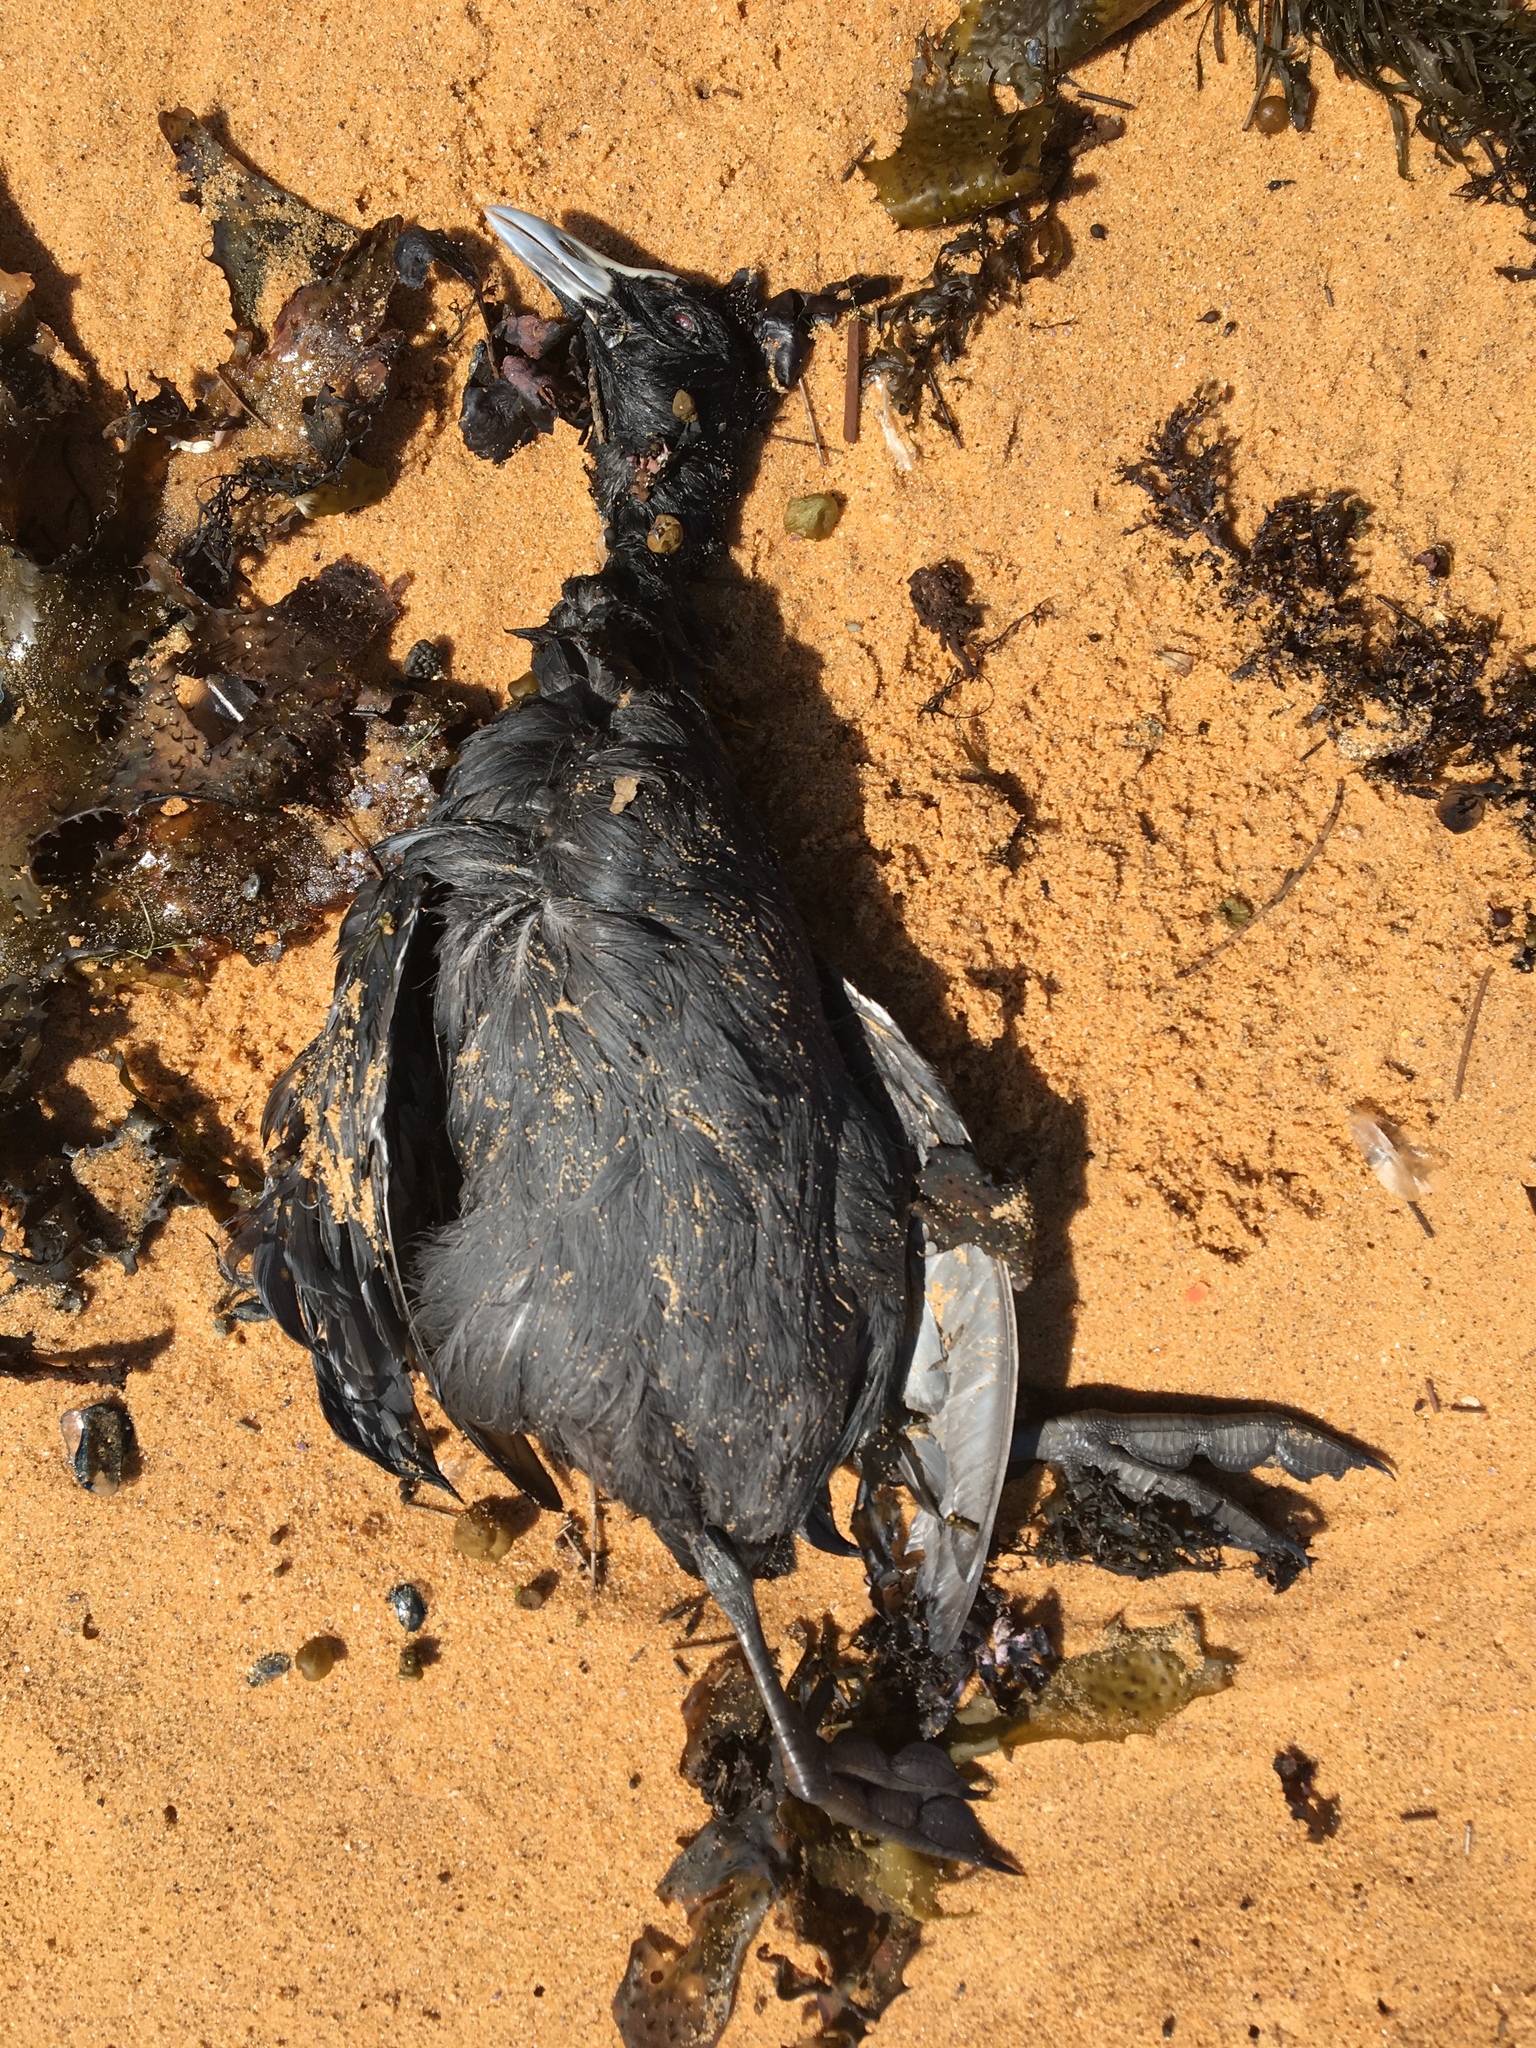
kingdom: Animalia
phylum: Chordata
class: Aves
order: Gruiformes
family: Rallidae
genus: Fulica
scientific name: Fulica atra
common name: Eurasian coot
